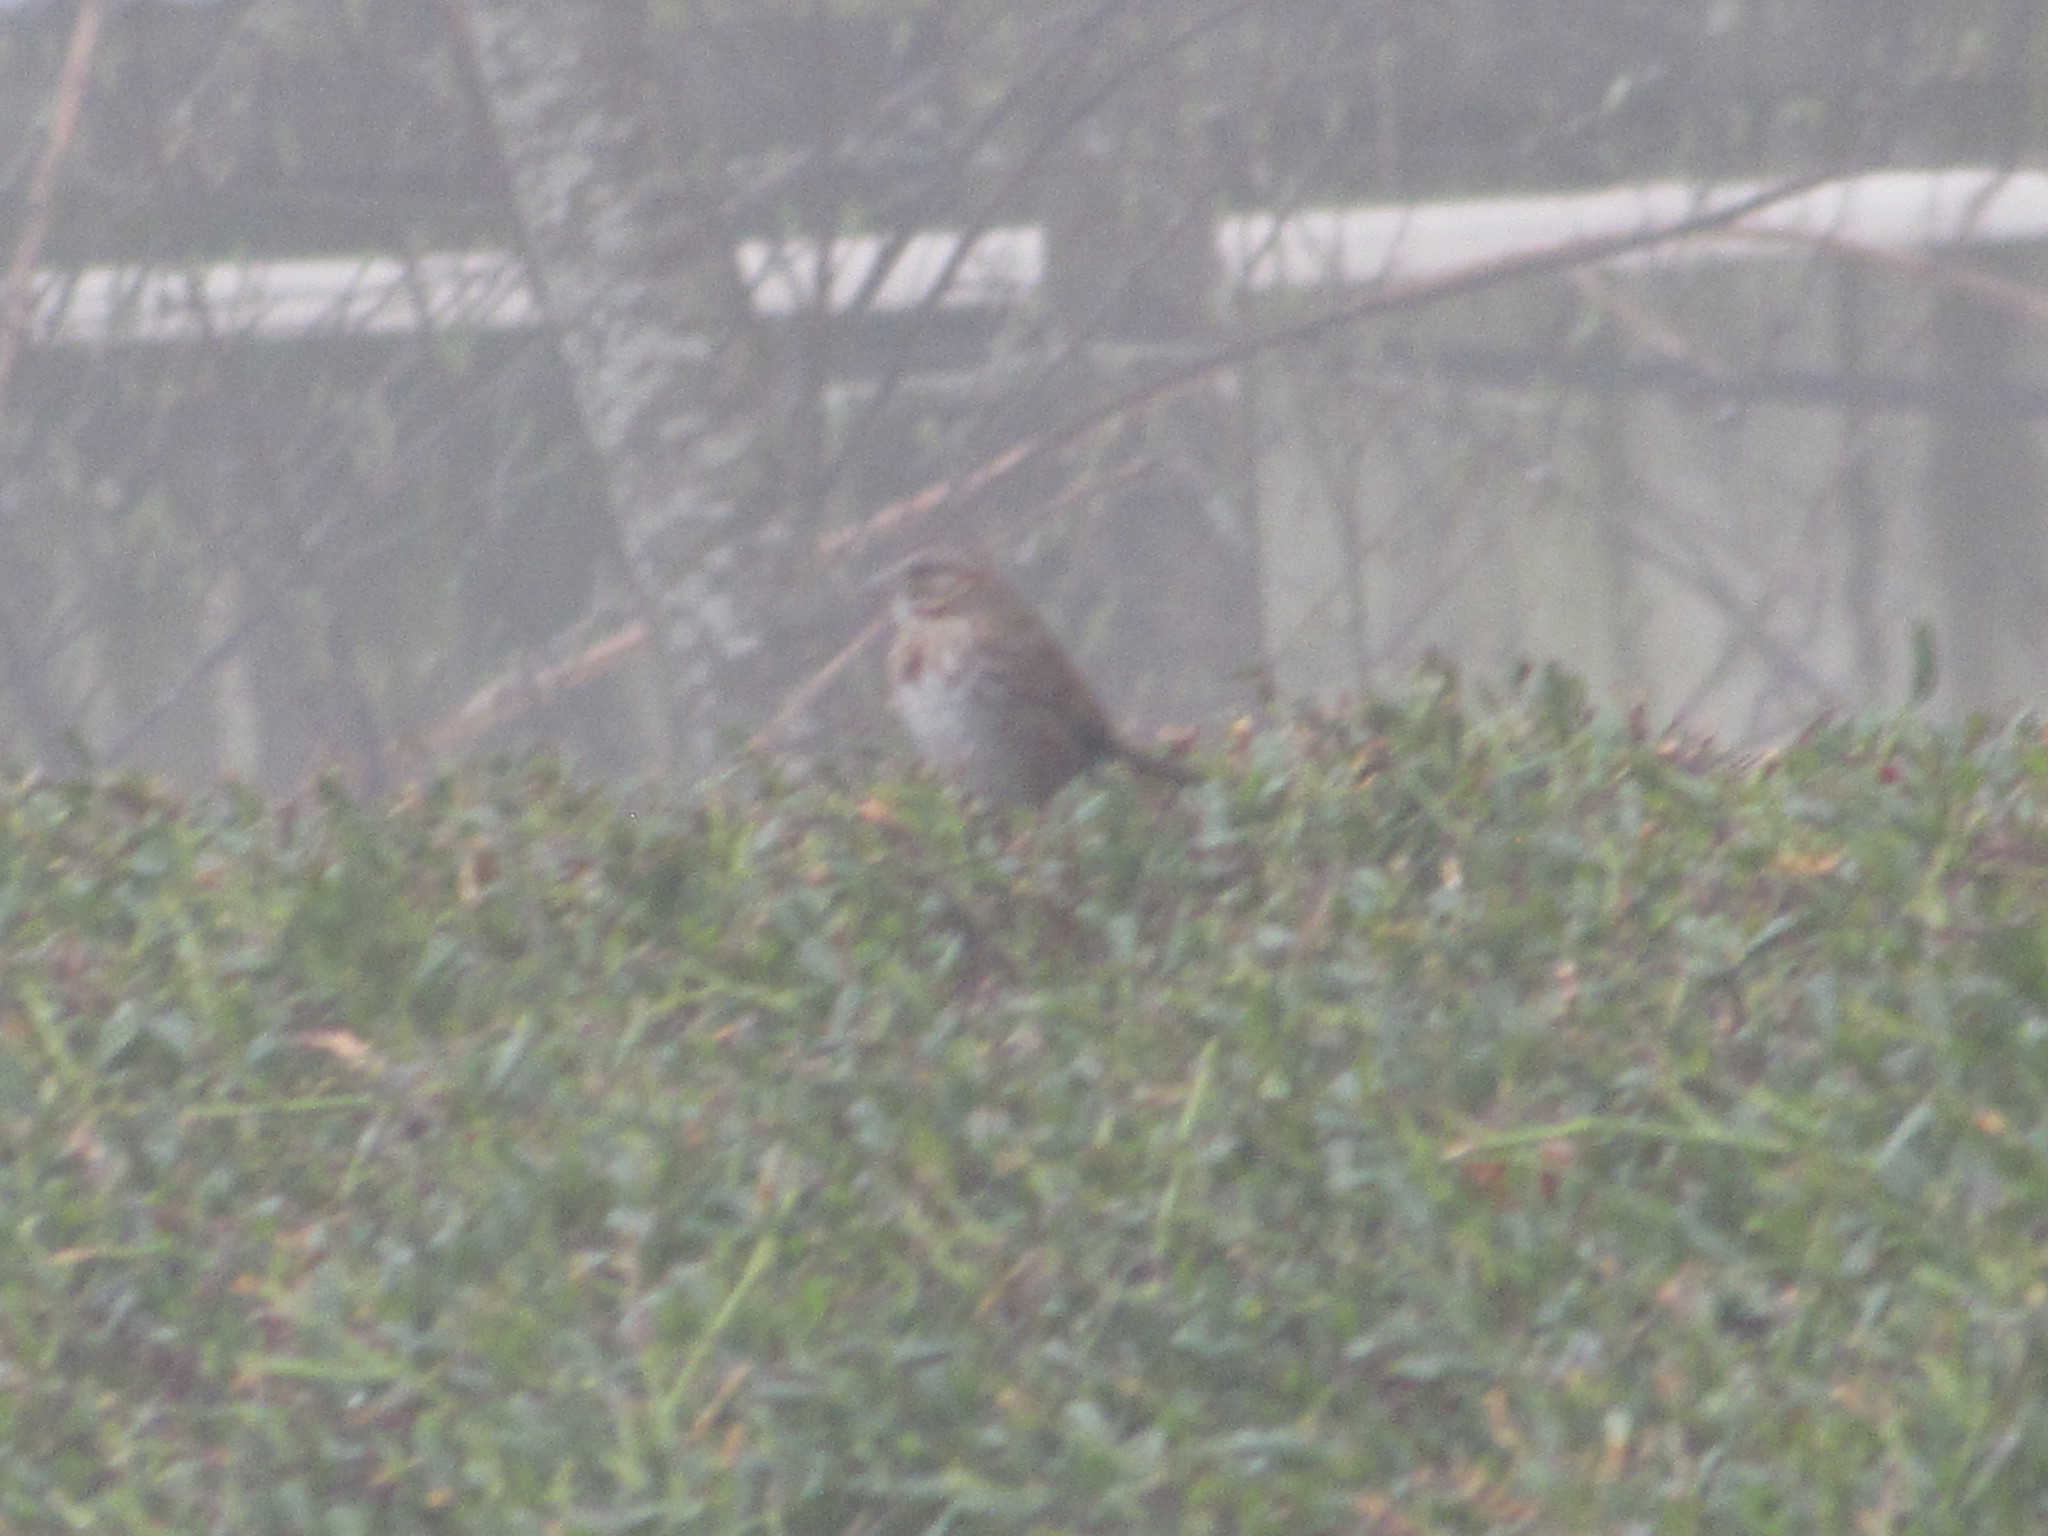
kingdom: Animalia
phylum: Chordata
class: Aves
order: Passeriformes
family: Passerellidae
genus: Melospiza
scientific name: Melospiza melodia
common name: Song sparrow
